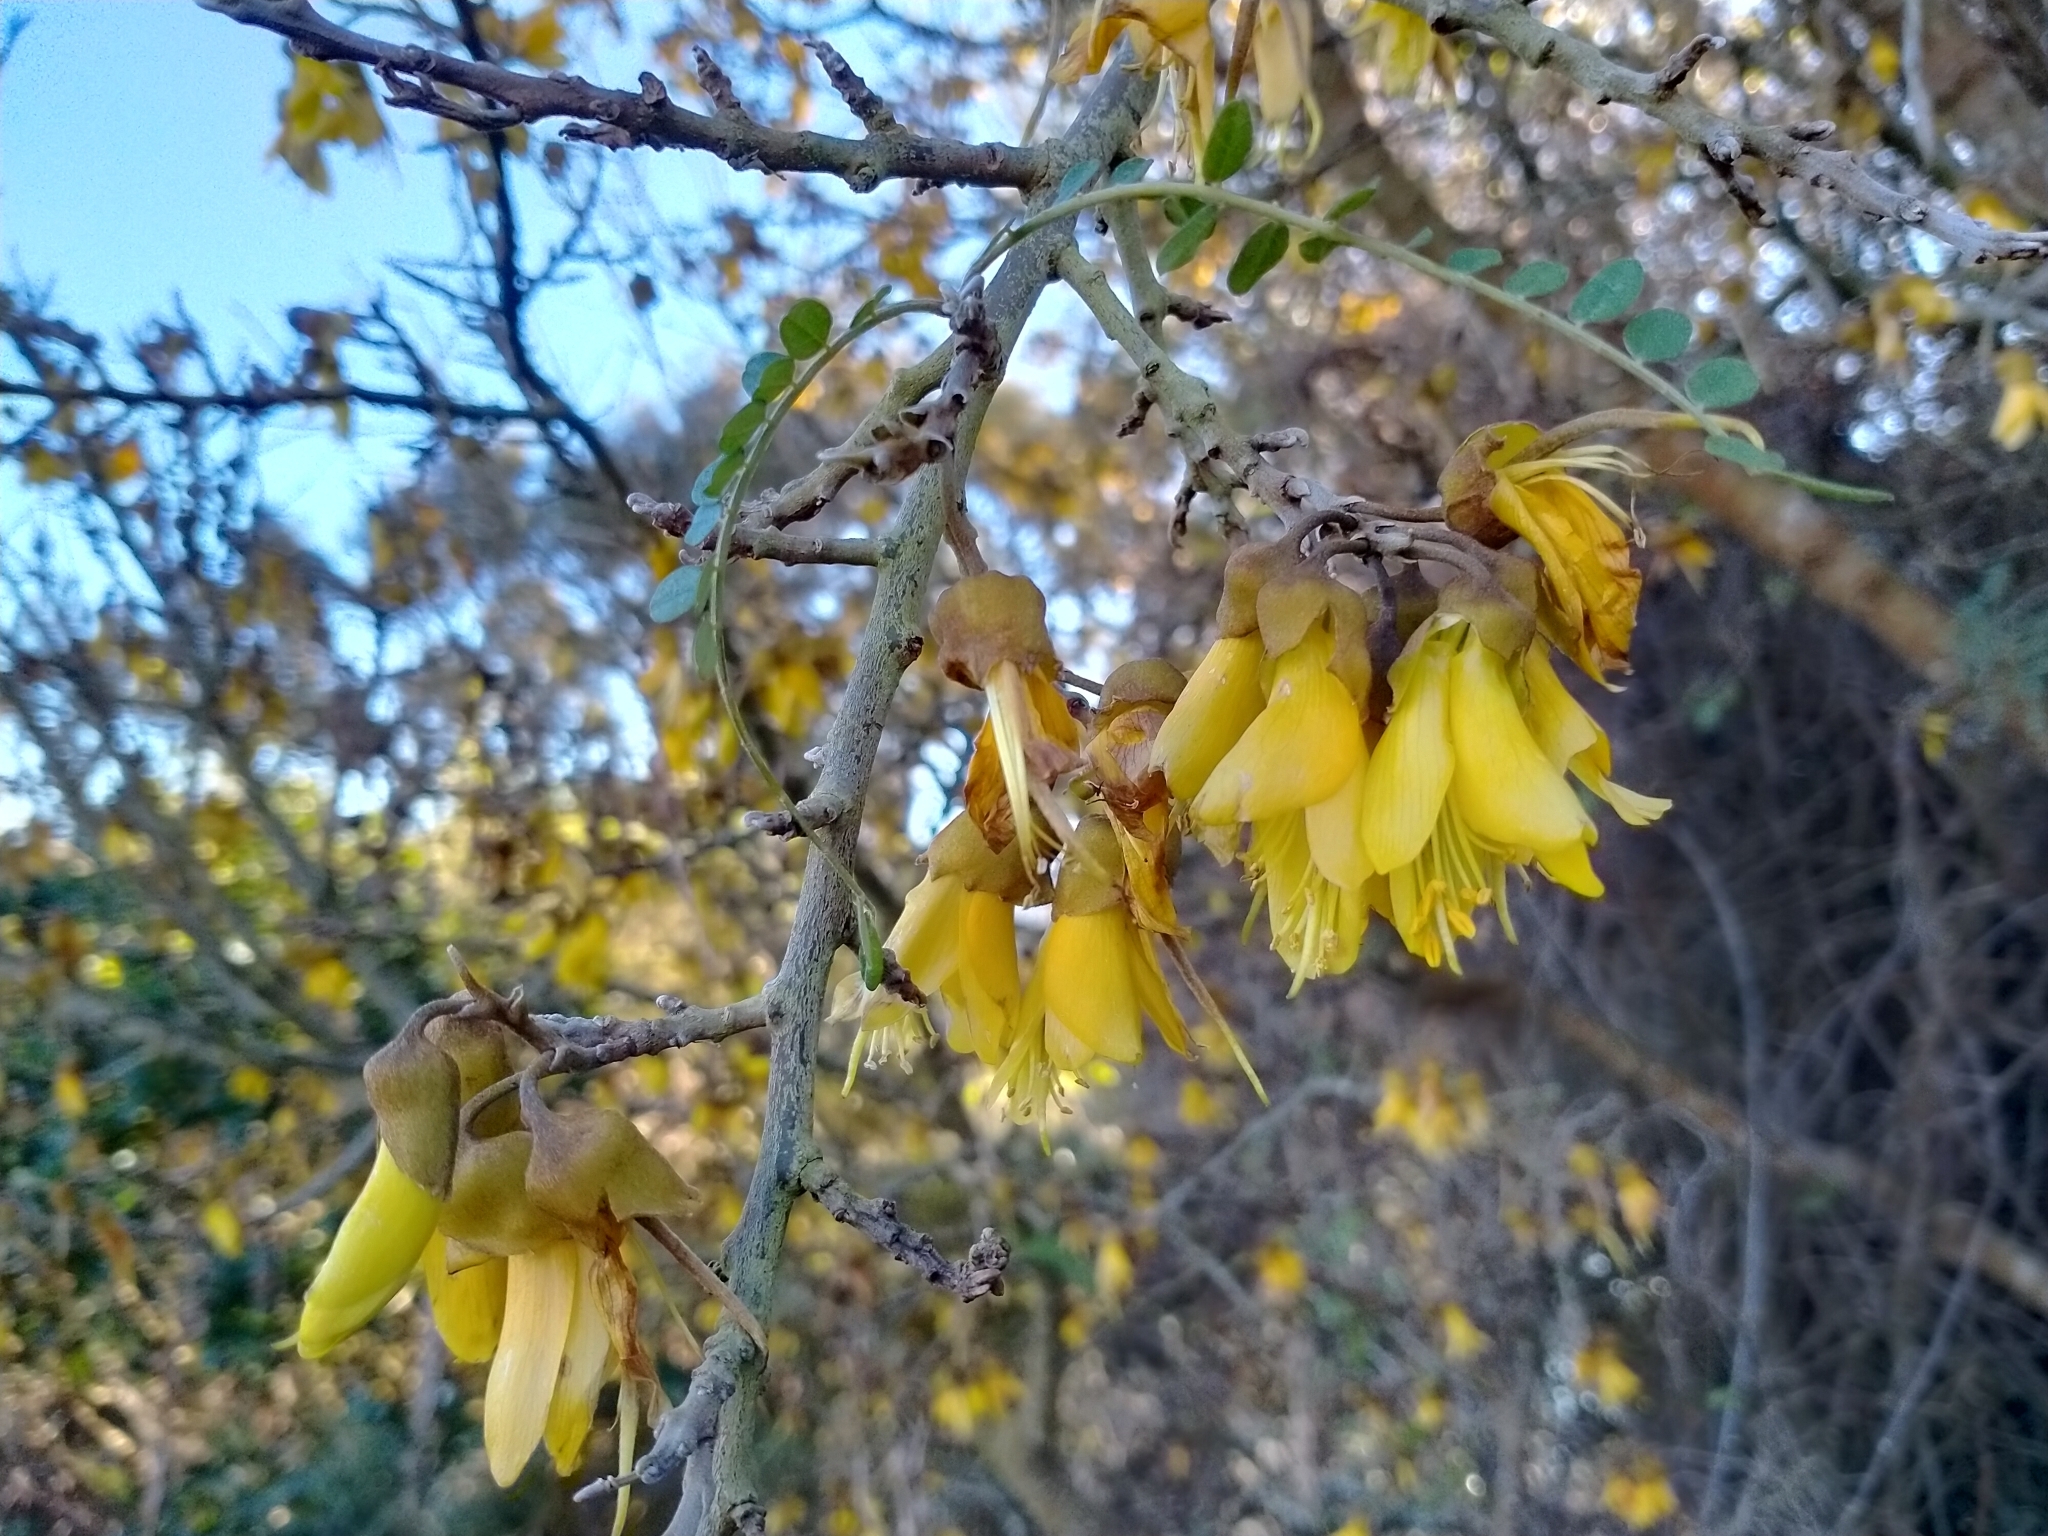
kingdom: Plantae
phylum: Tracheophyta
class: Magnoliopsida
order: Fabales
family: Fabaceae
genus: Sophora
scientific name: Sophora microphylla
